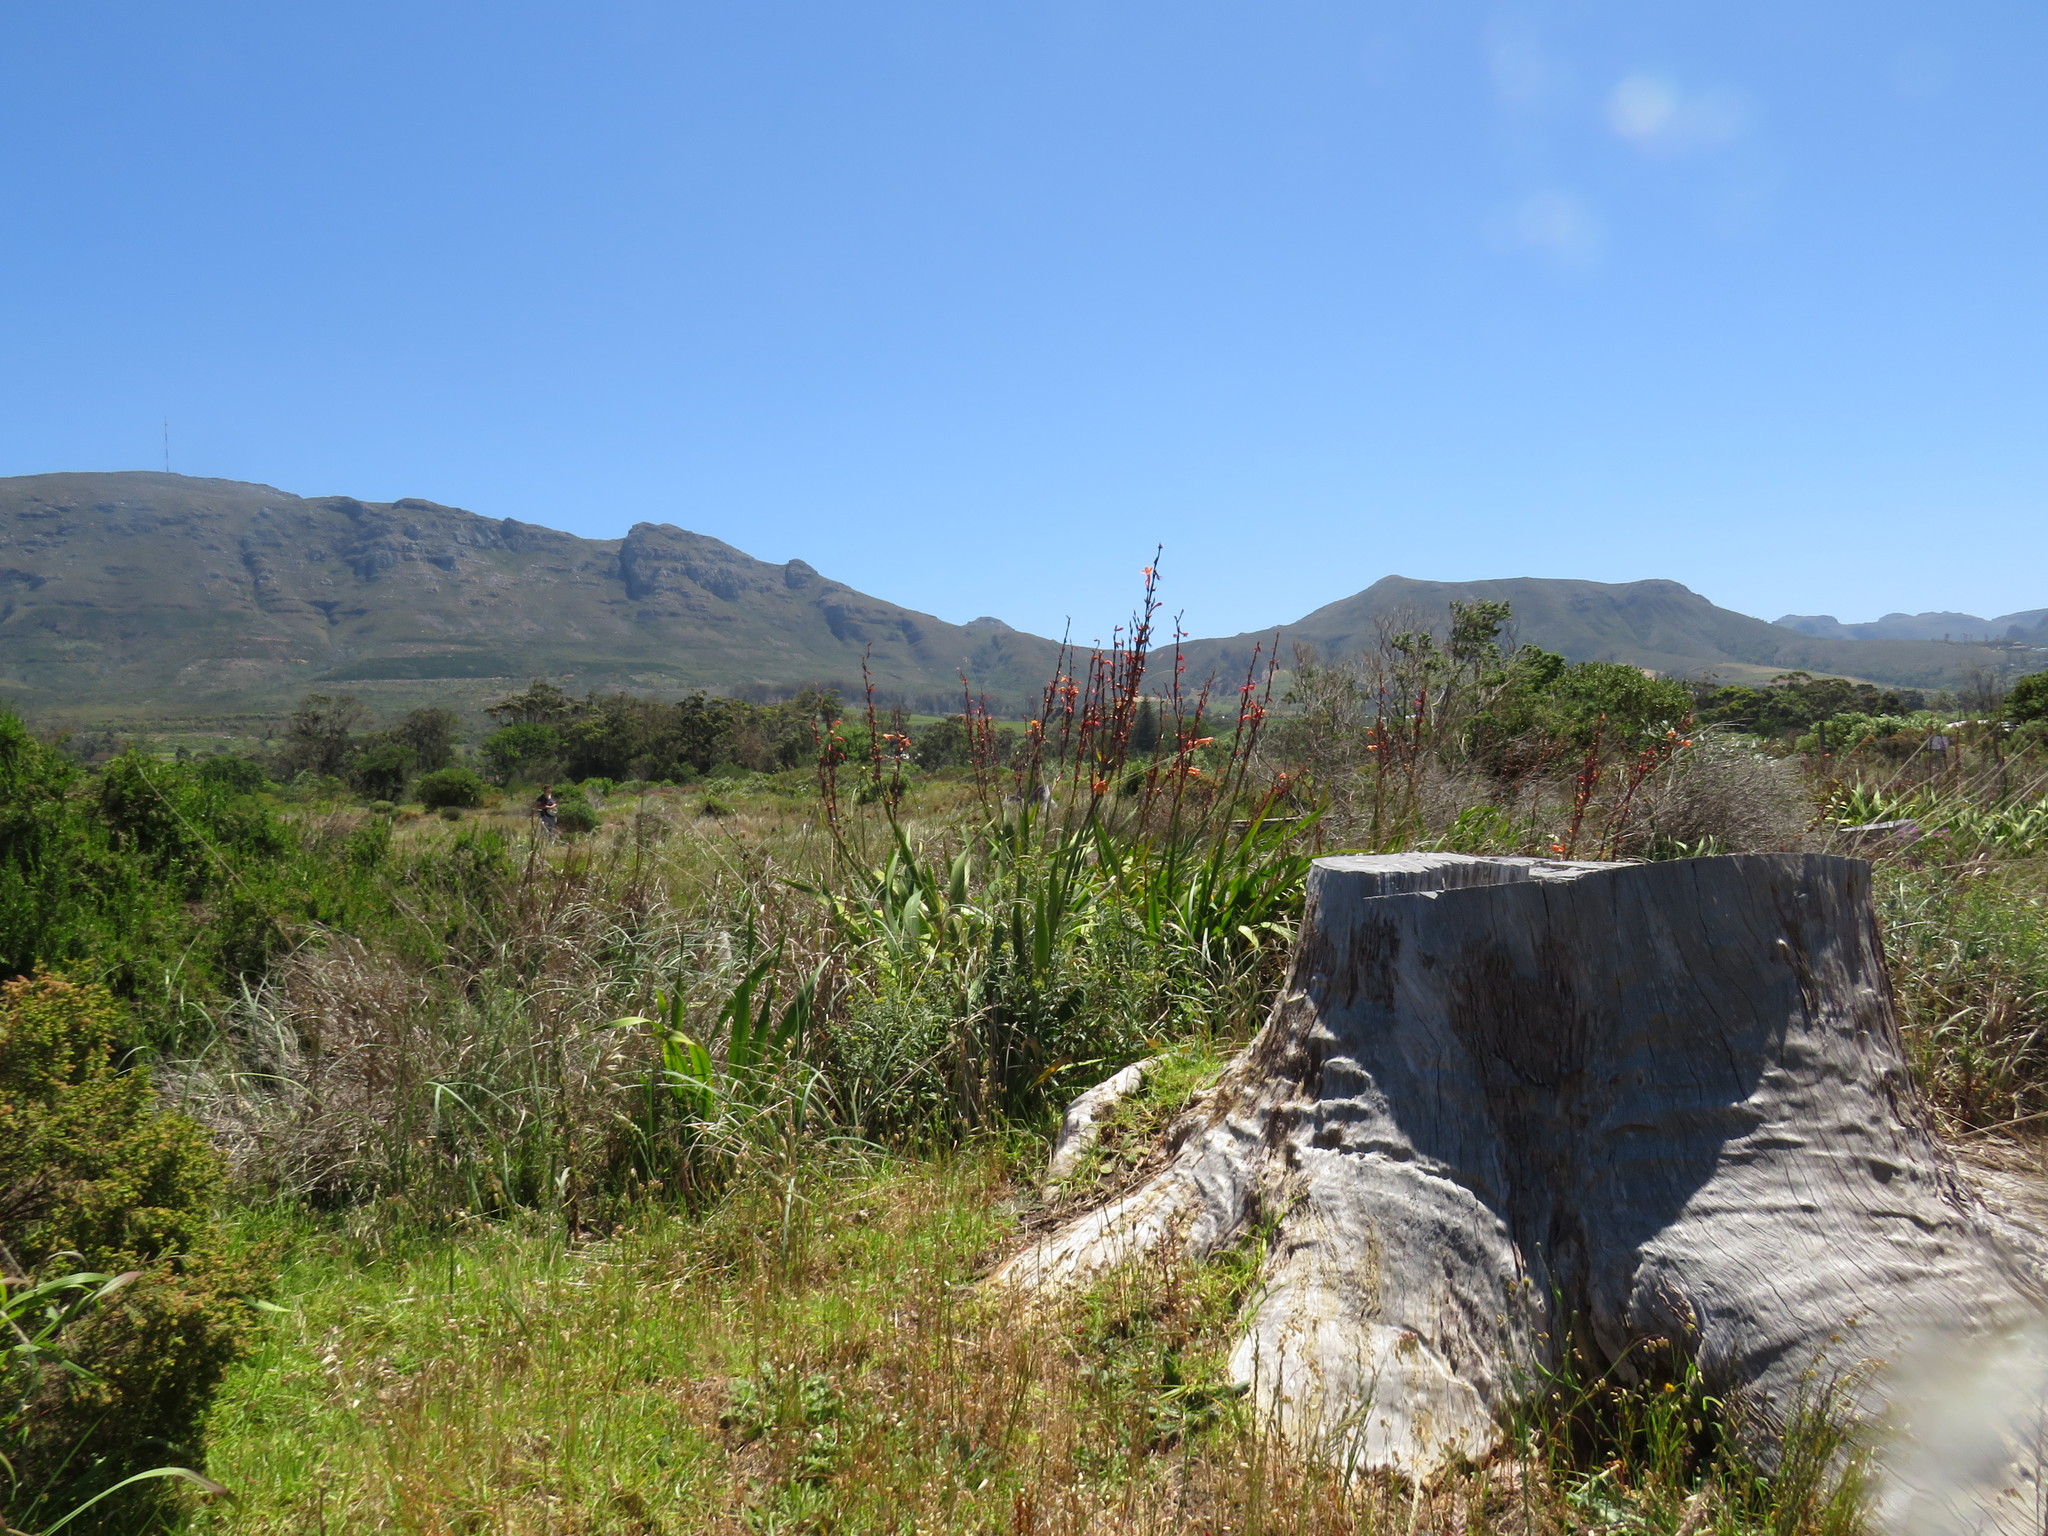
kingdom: Plantae
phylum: Tracheophyta
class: Liliopsida
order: Asparagales
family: Iridaceae
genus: Watsonia
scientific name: Watsonia meriana
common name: Bulbil bugle-lily
